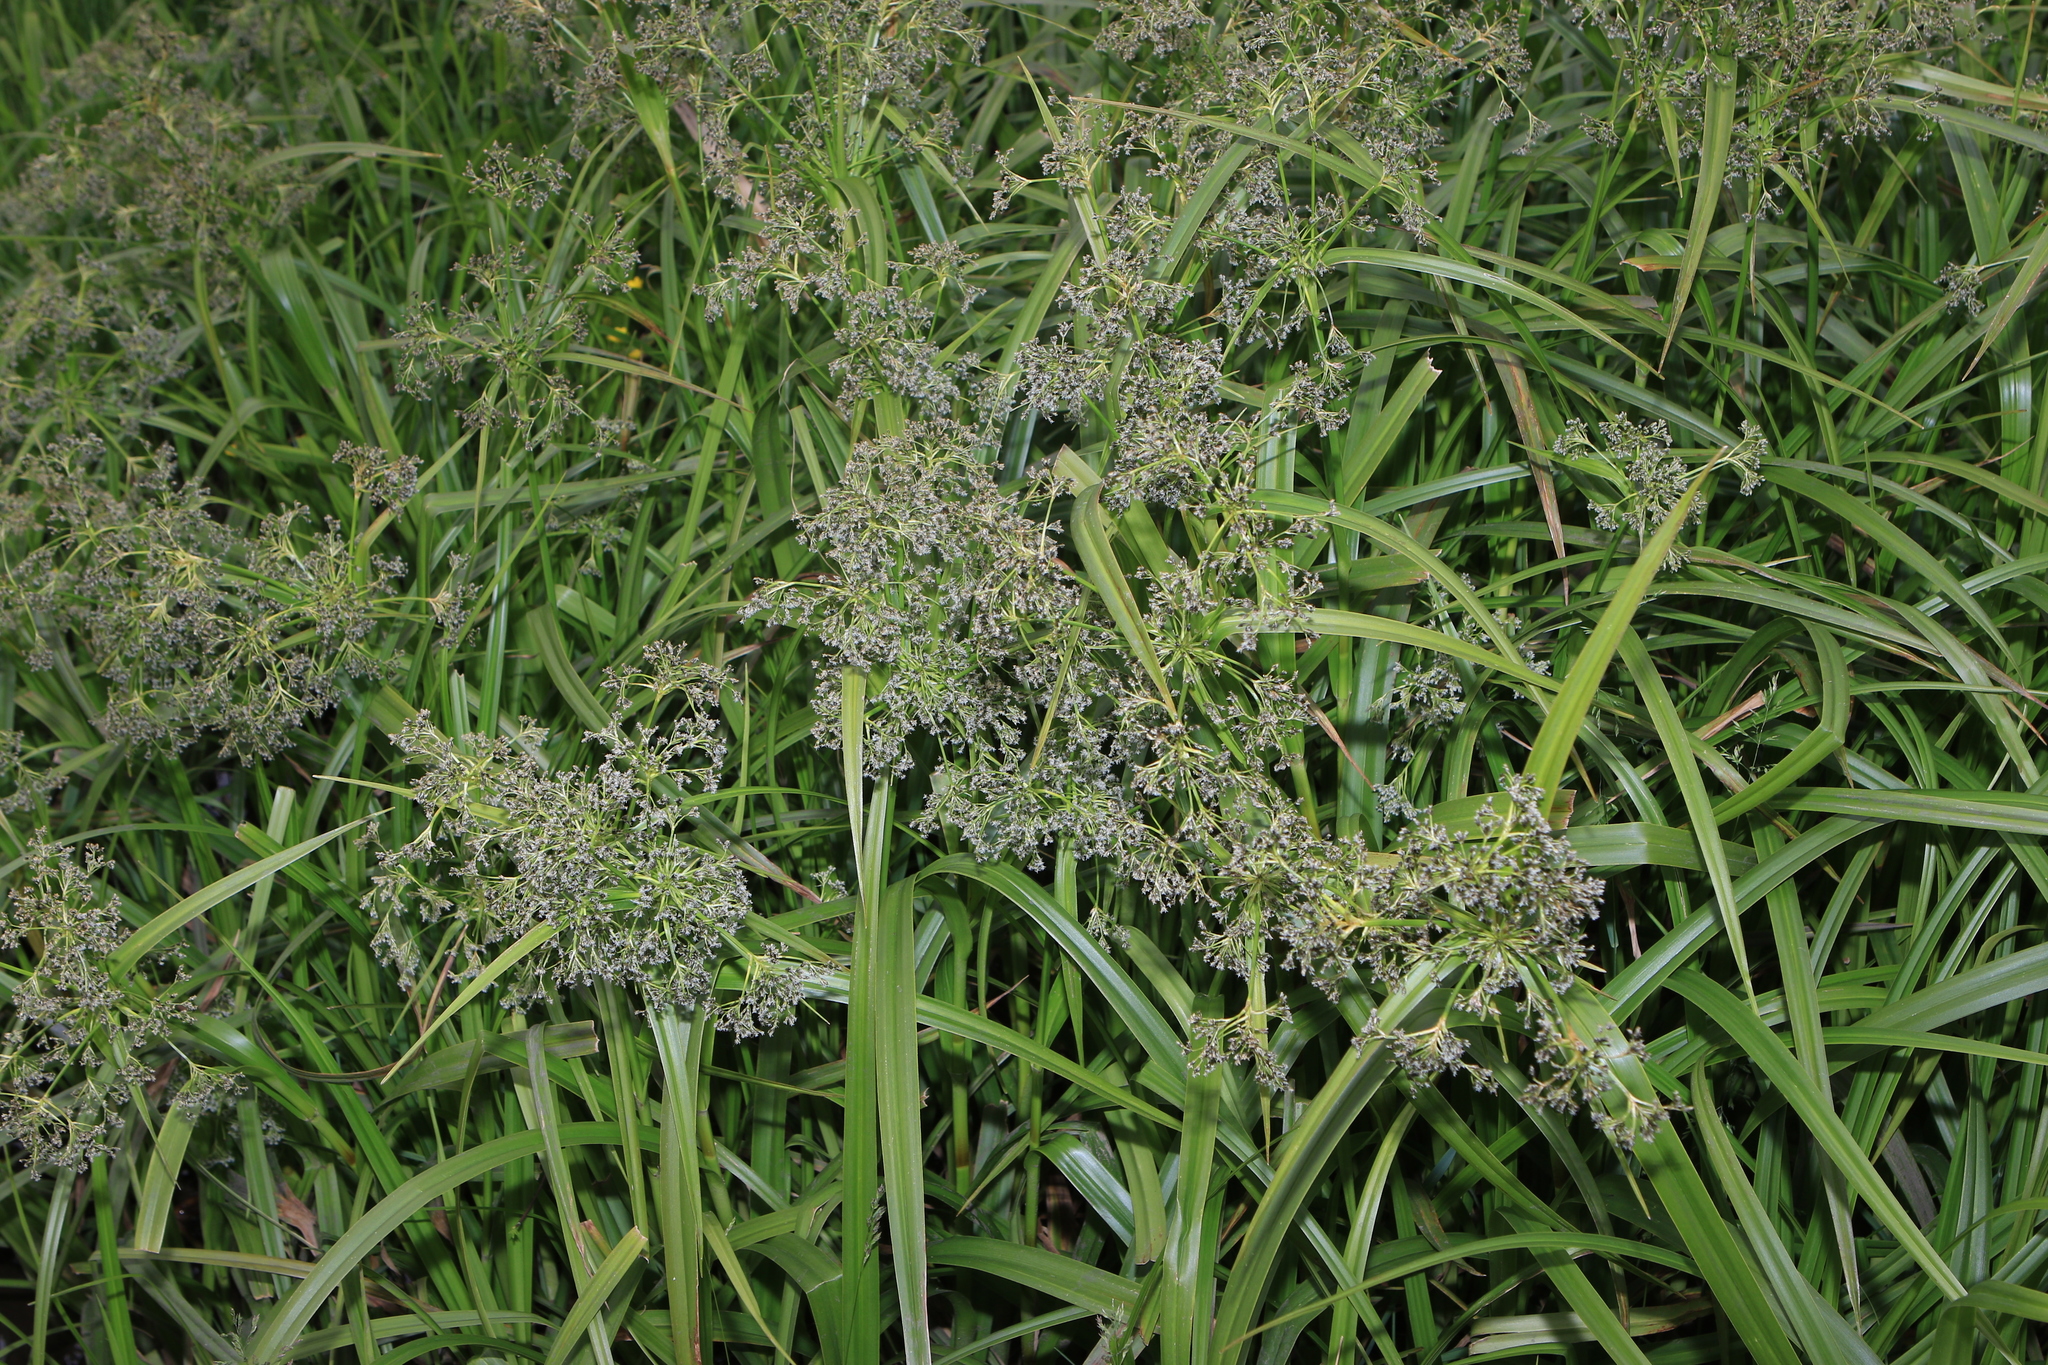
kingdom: Plantae
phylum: Tracheophyta
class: Liliopsida
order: Poales
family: Cyperaceae
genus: Scirpus
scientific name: Scirpus sylvaticus
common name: Wood club-rush
